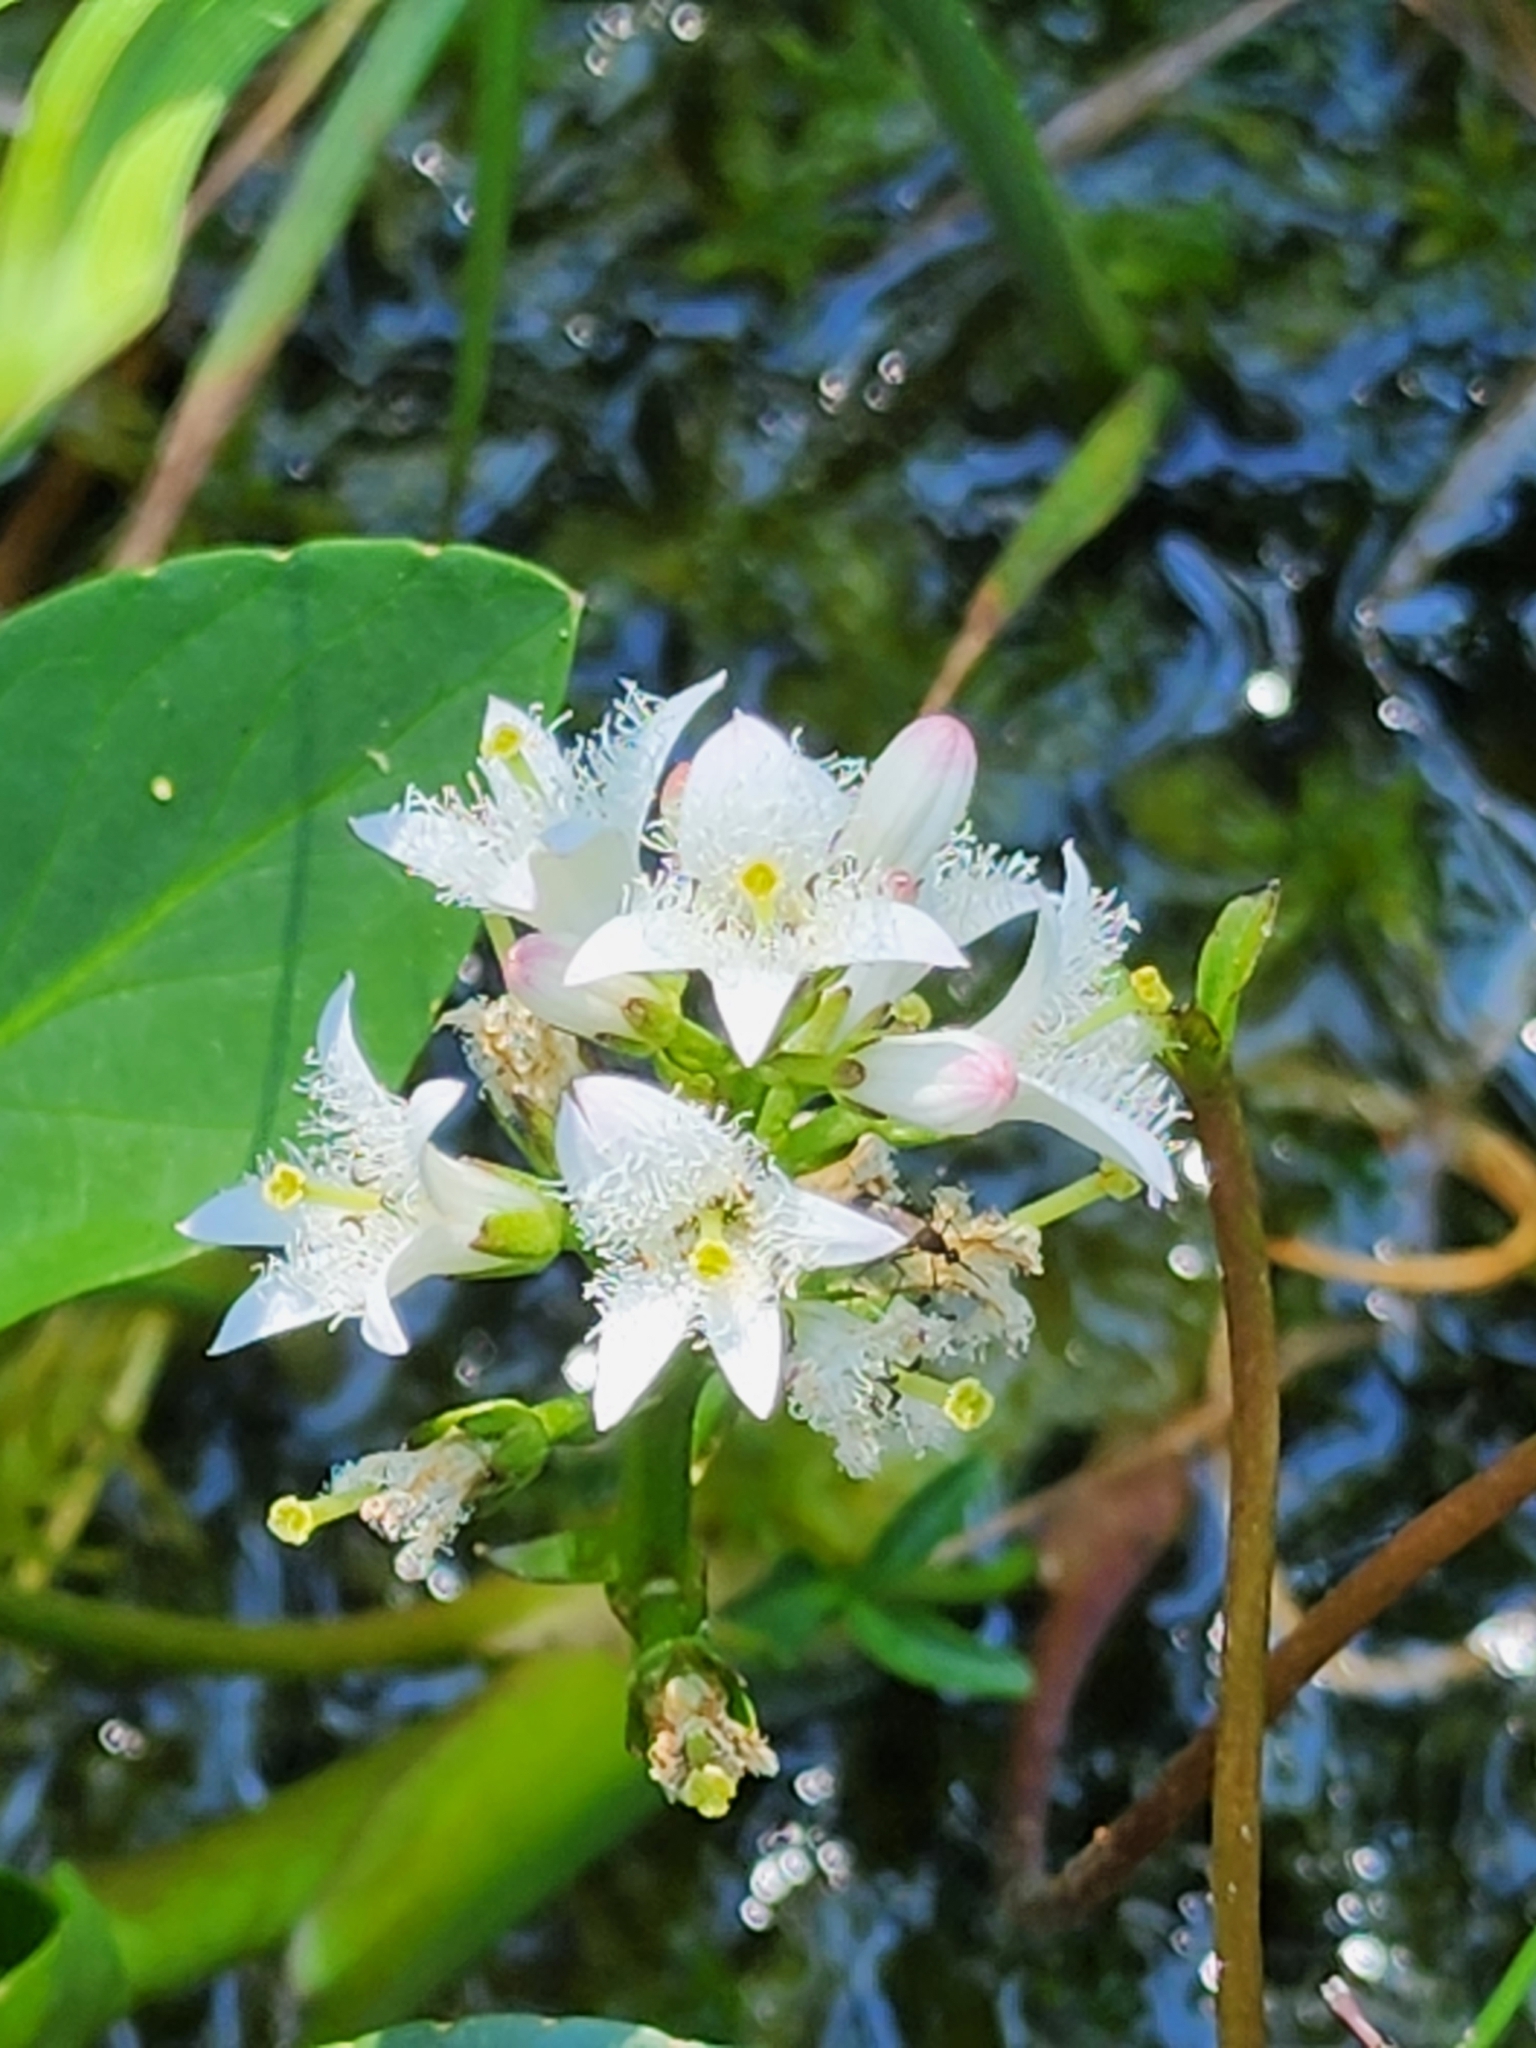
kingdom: Plantae
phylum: Tracheophyta
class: Magnoliopsida
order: Asterales
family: Menyanthaceae
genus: Menyanthes
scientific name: Menyanthes trifoliata
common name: Bogbean
